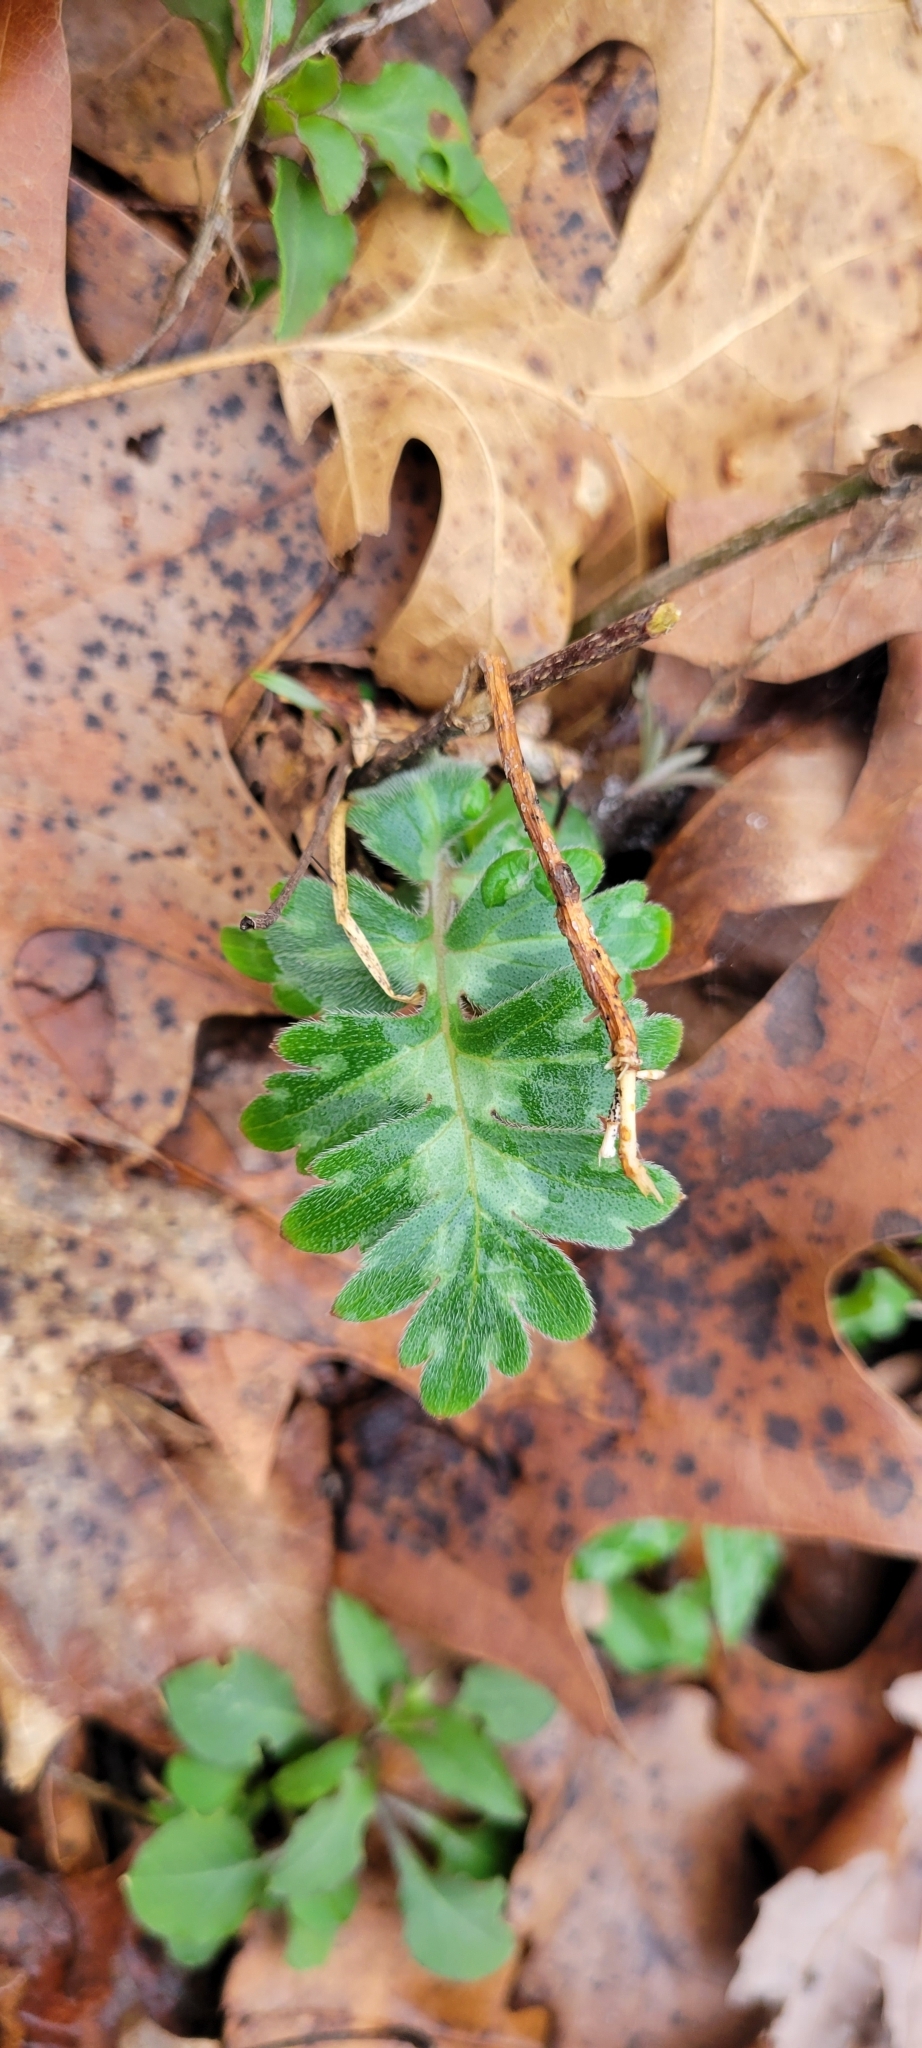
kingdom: Plantae
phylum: Tracheophyta
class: Magnoliopsida
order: Boraginales
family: Hydrophyllaceae
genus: Hydrophyllum
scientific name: Hydrophyllum appendiculatum
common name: Appendaged waterleaf
